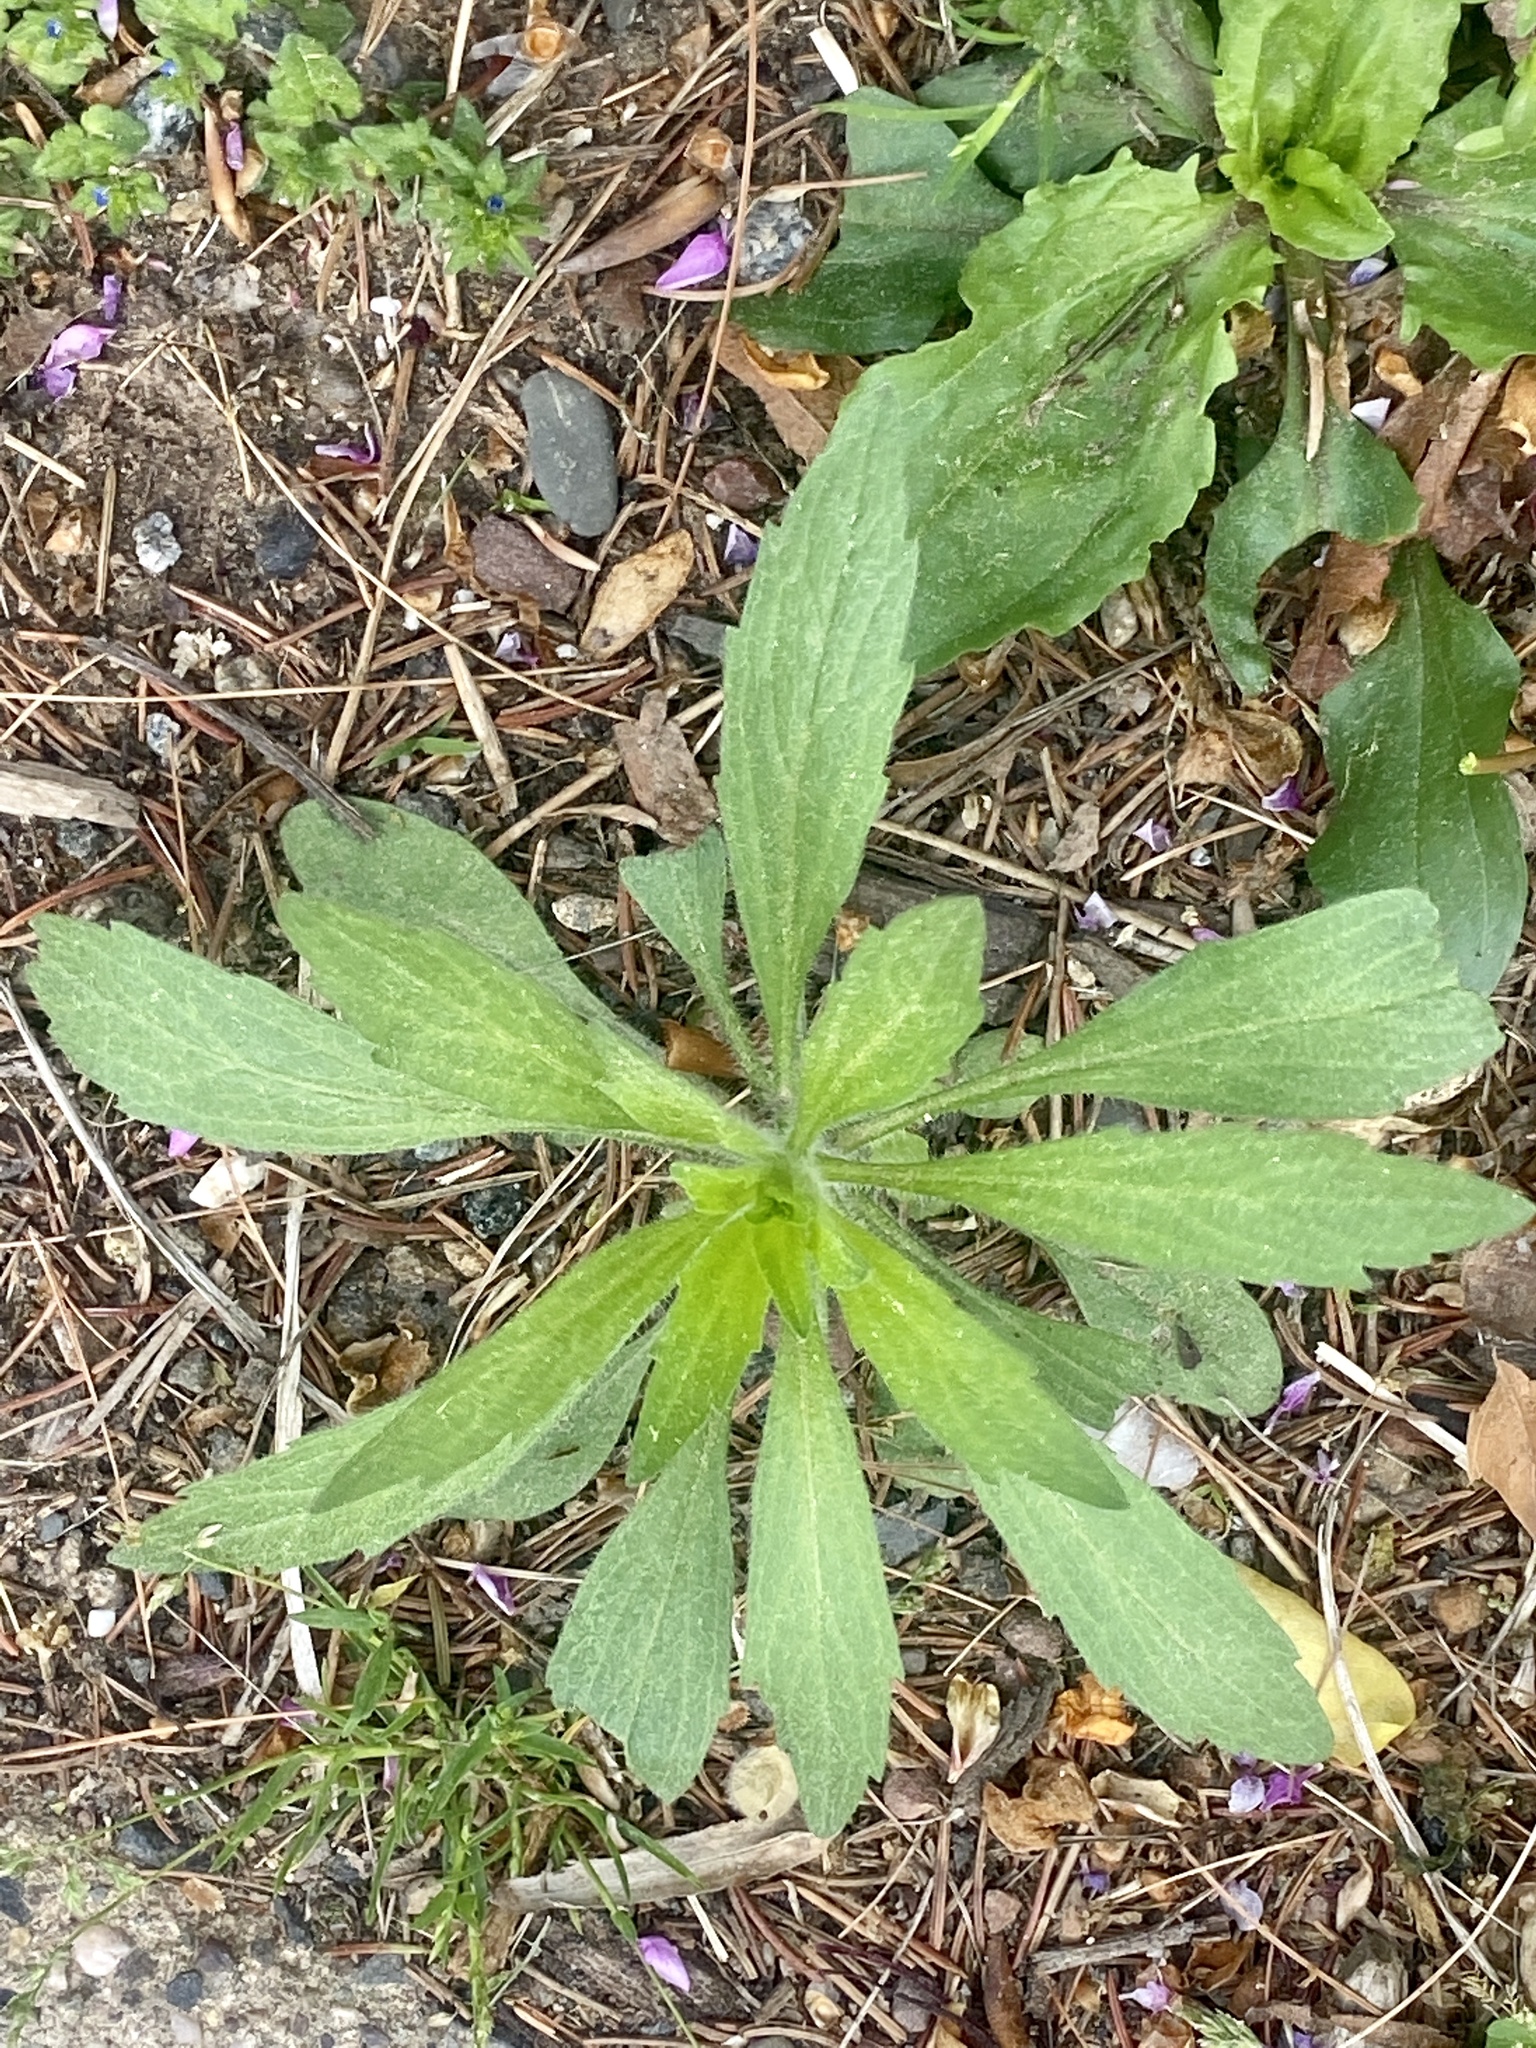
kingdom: Plantae
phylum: Tracheophyta
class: Magnoliopsida
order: Asterales
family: Asteraceae
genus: Erigeron
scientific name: Erigeron canadensis
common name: Canadian fleabane
